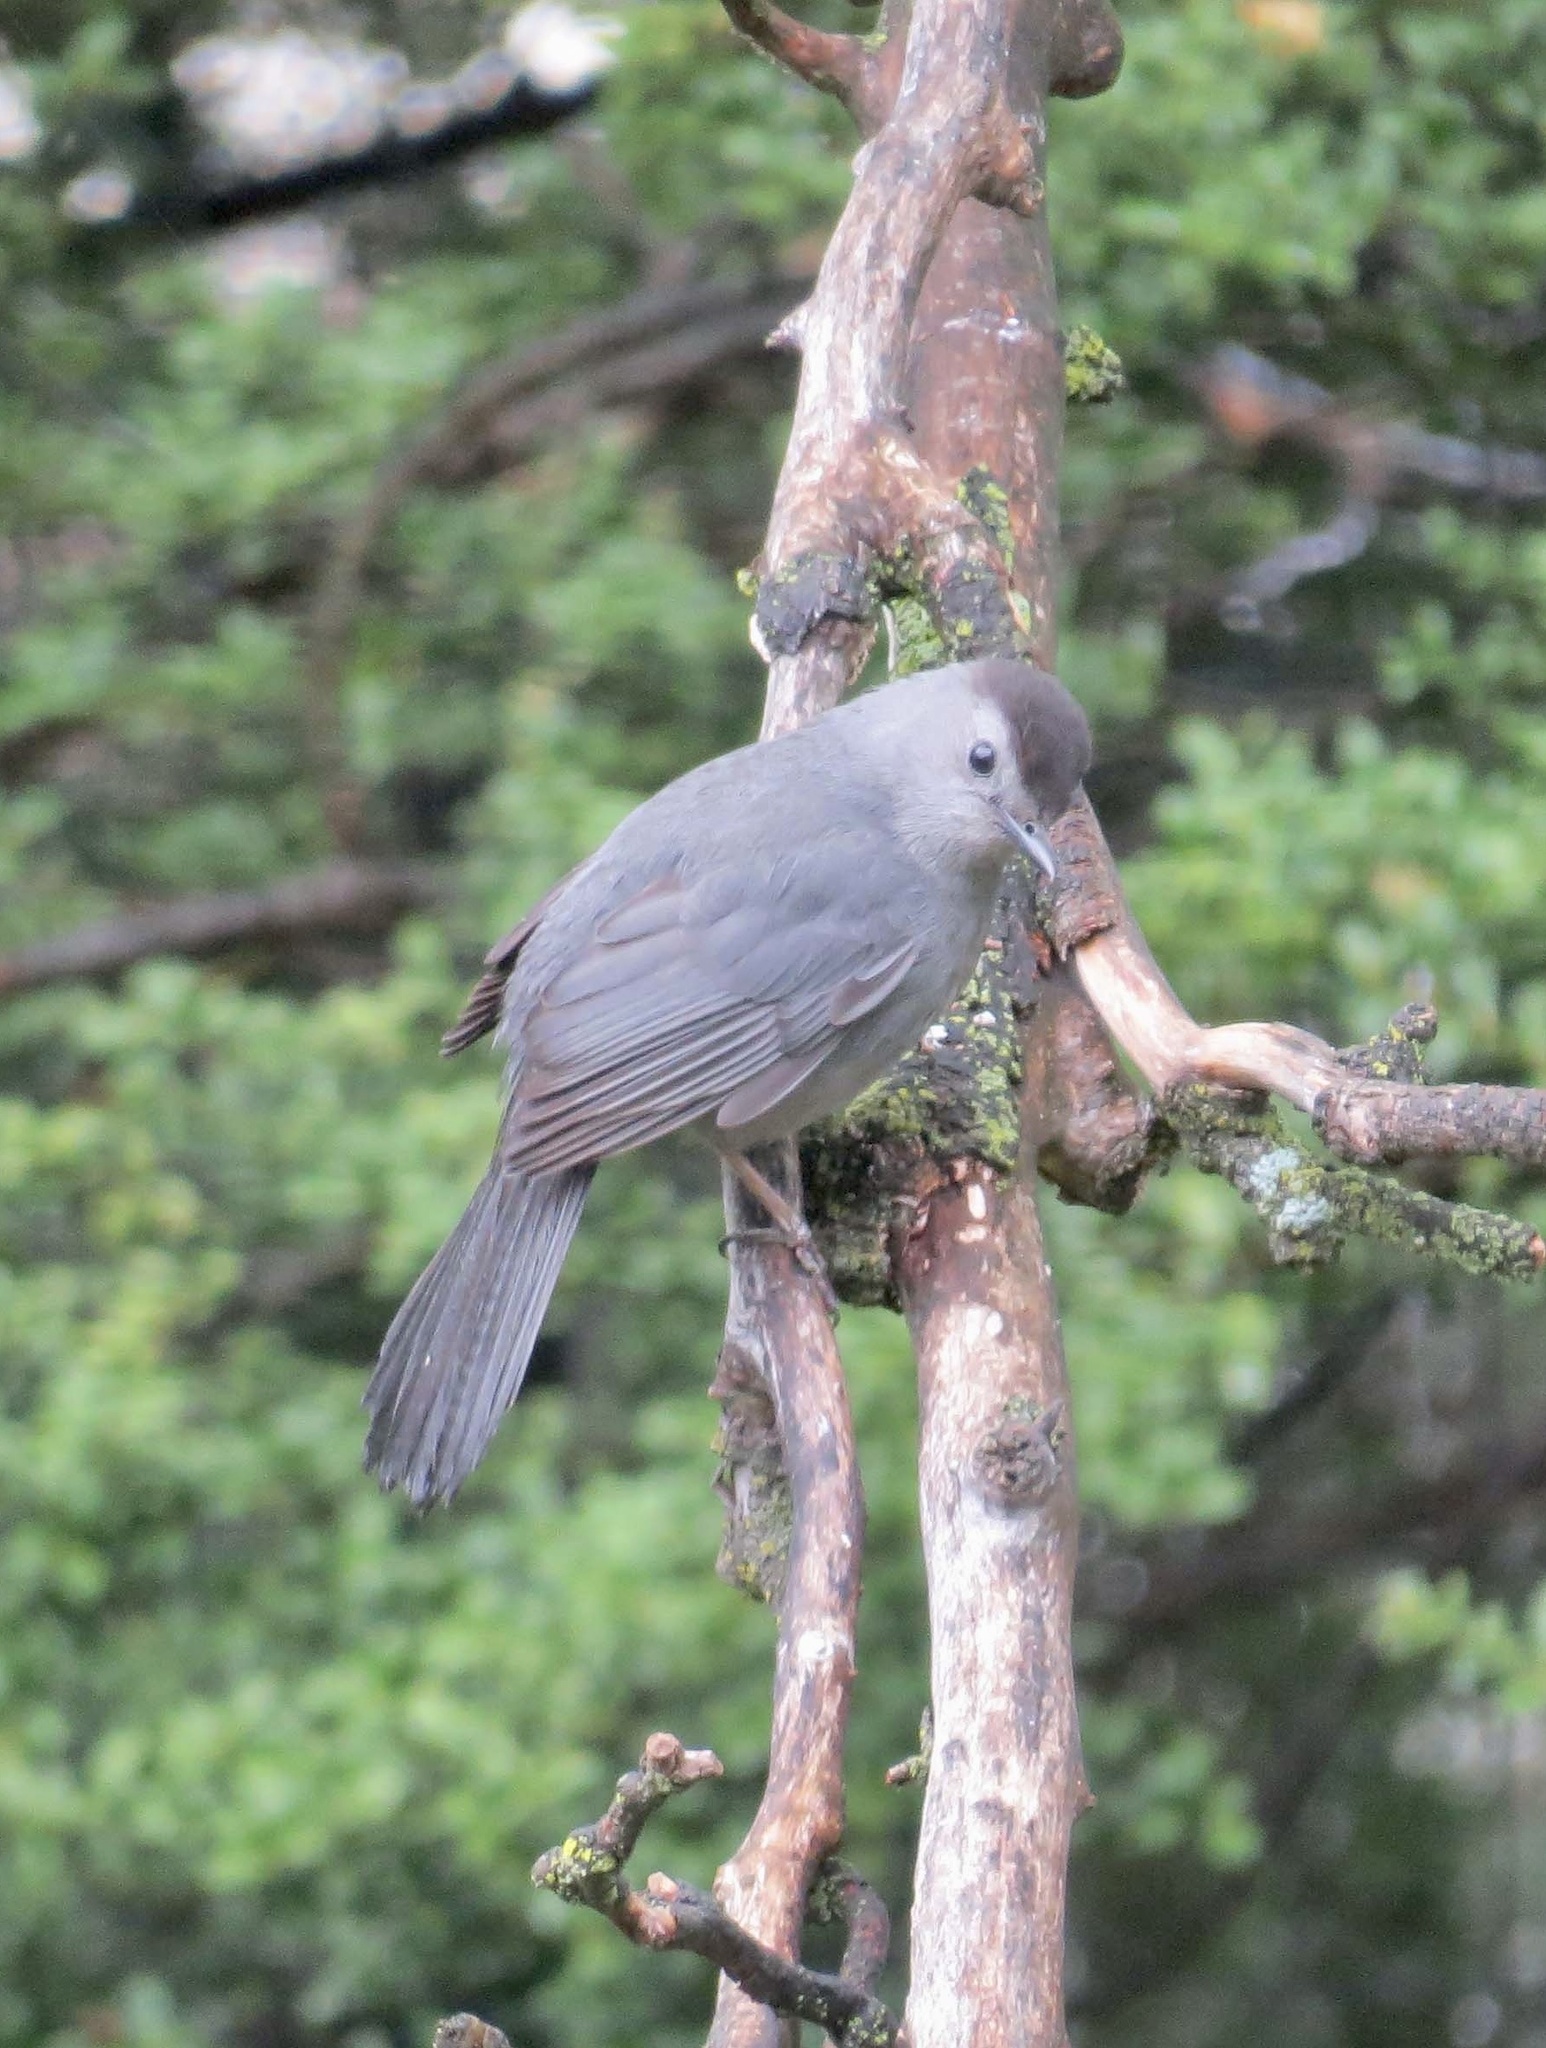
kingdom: Animalia
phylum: Chordata
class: Aves
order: Passeriformes
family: Mimidae
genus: Dumetella
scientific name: Dumetella carolinensis
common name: Gray catbird
